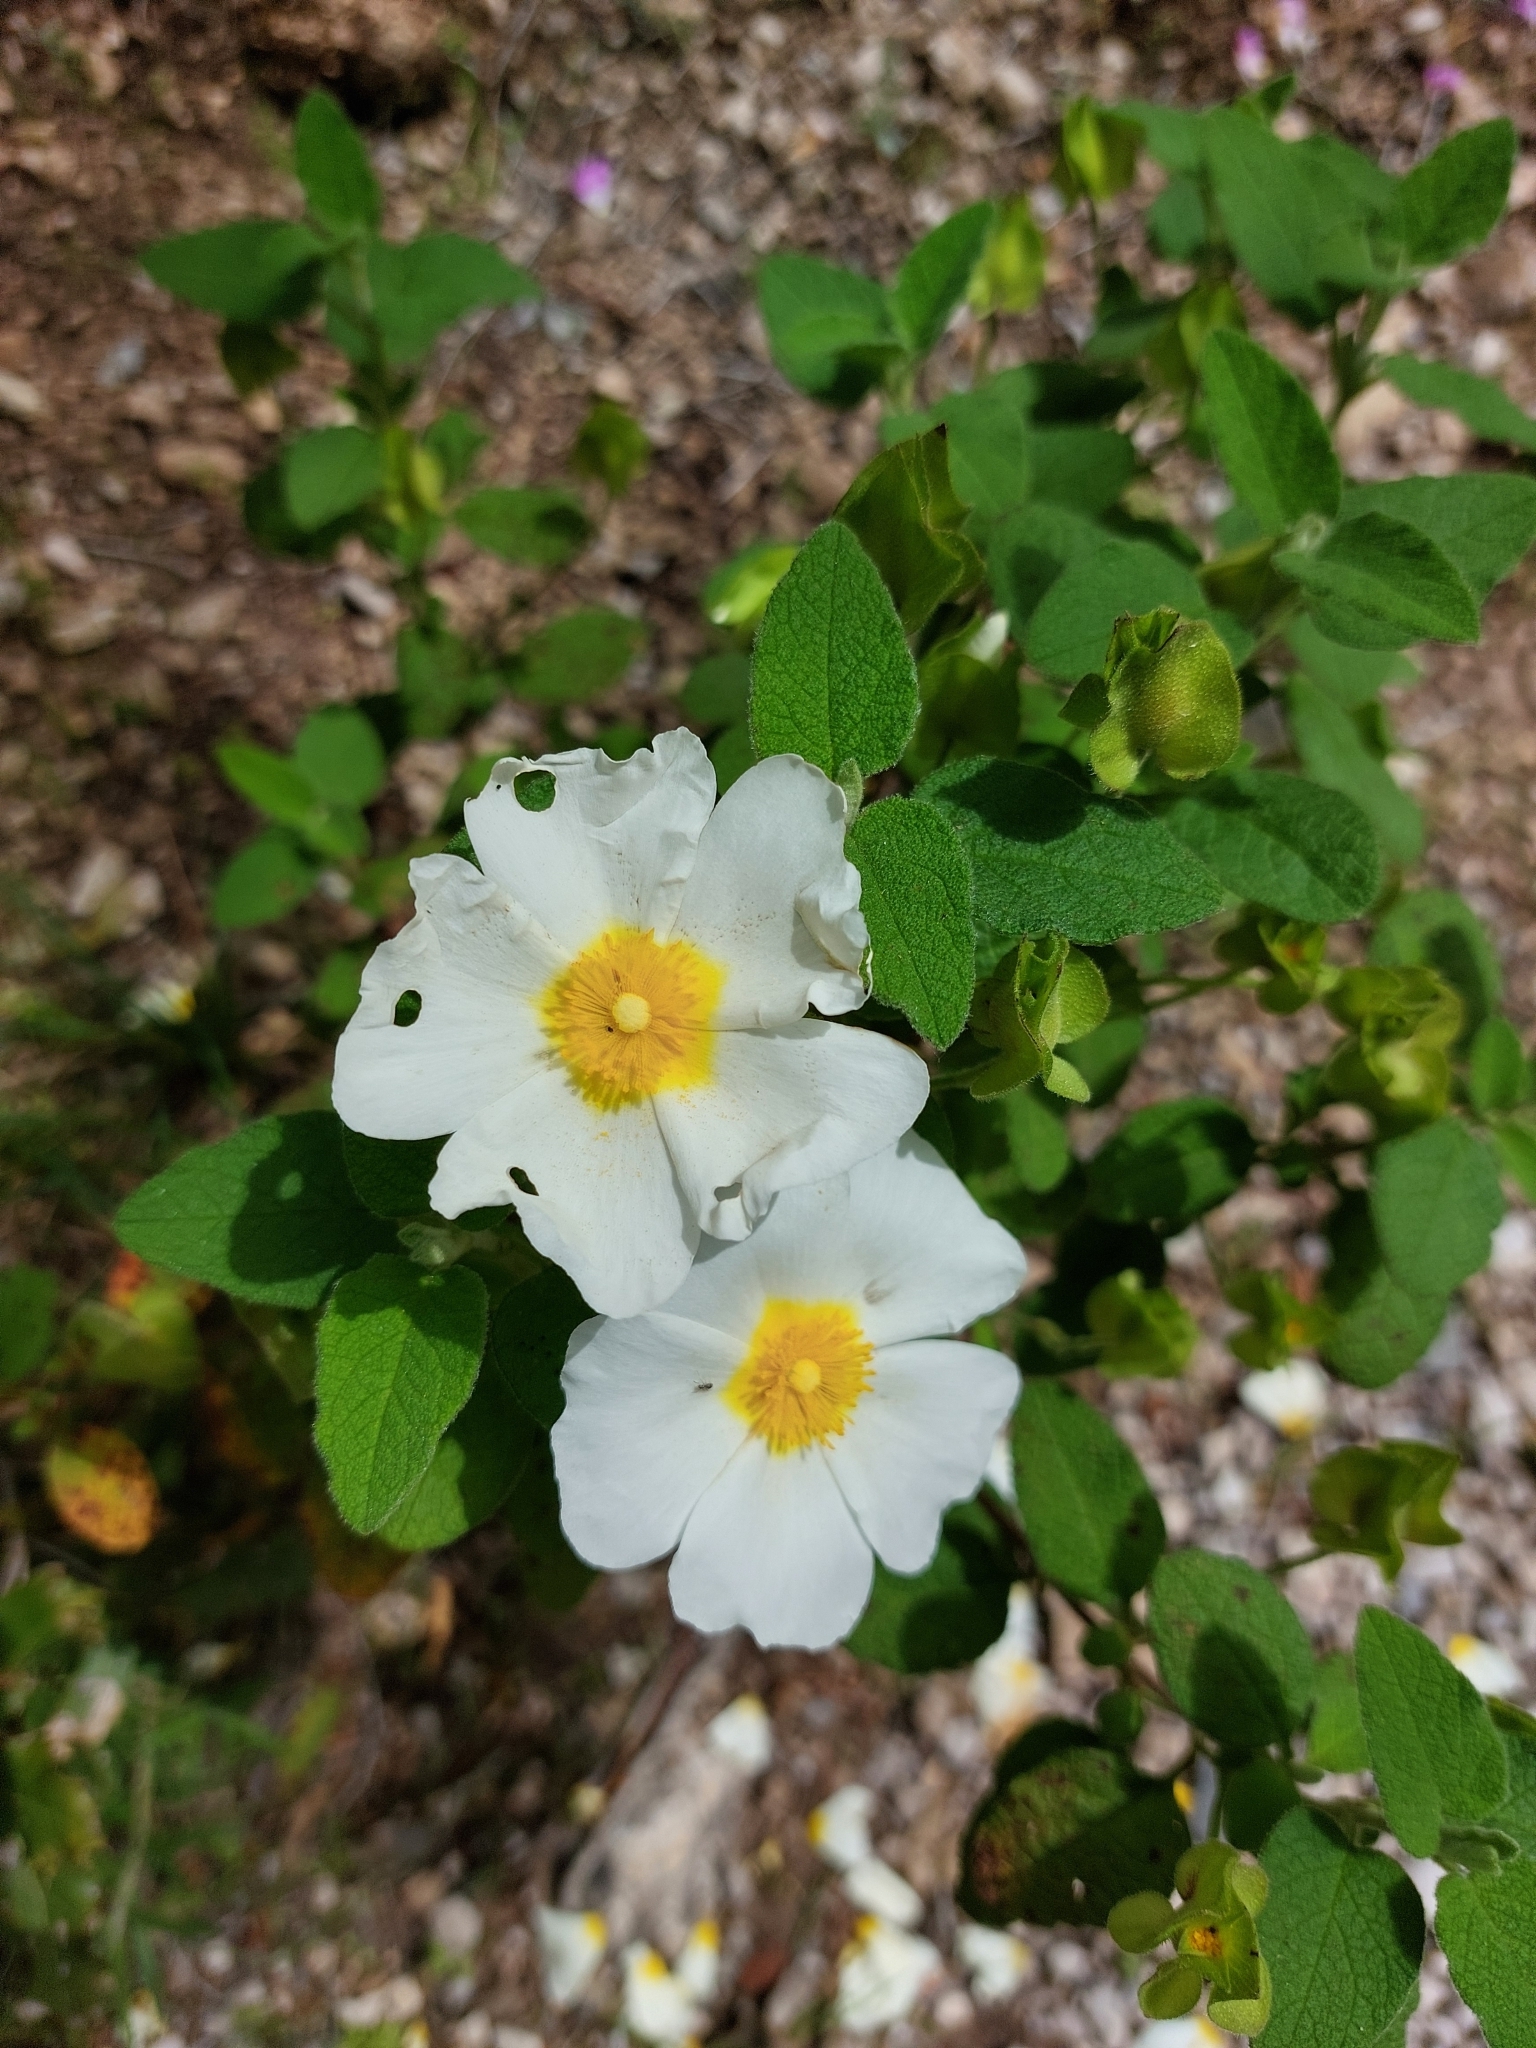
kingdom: Plantae
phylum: Tracheophyta
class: Magnoliopsida
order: Malvales
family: Cistaceae
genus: Cistus
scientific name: Cistus salviifolius
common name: Salvia cistus
